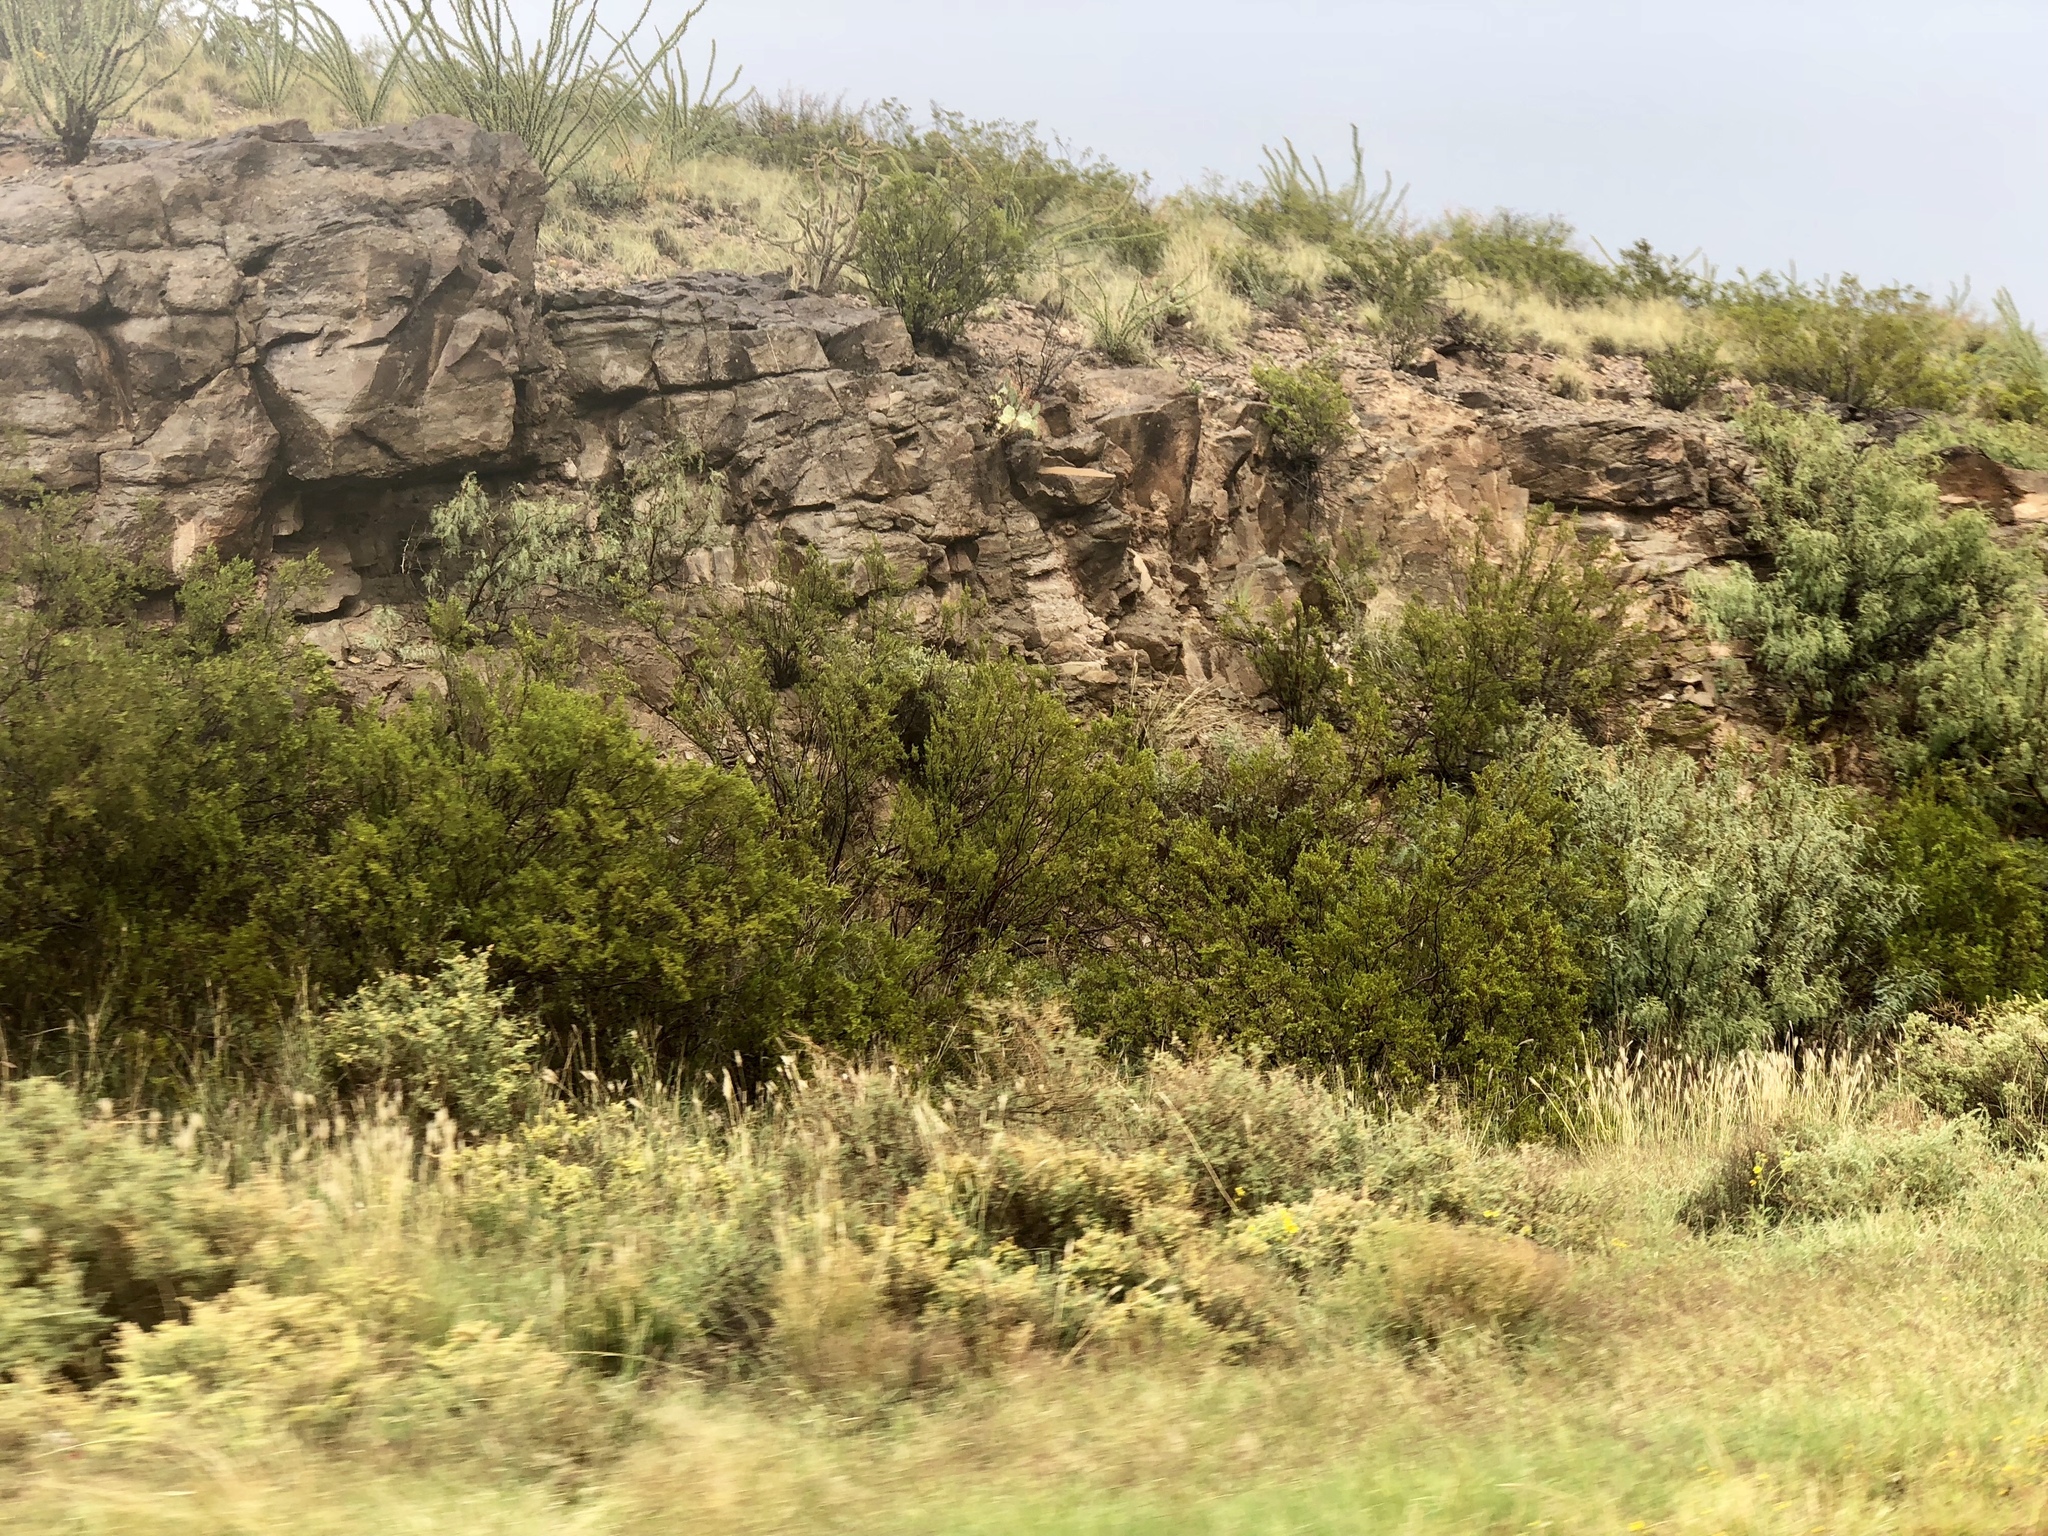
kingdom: Plantae
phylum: Tracheophyta
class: Magnoliopsida
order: Zygophyllales
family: Zygophyllaceae
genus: Larrea
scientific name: Larrea tridentata
